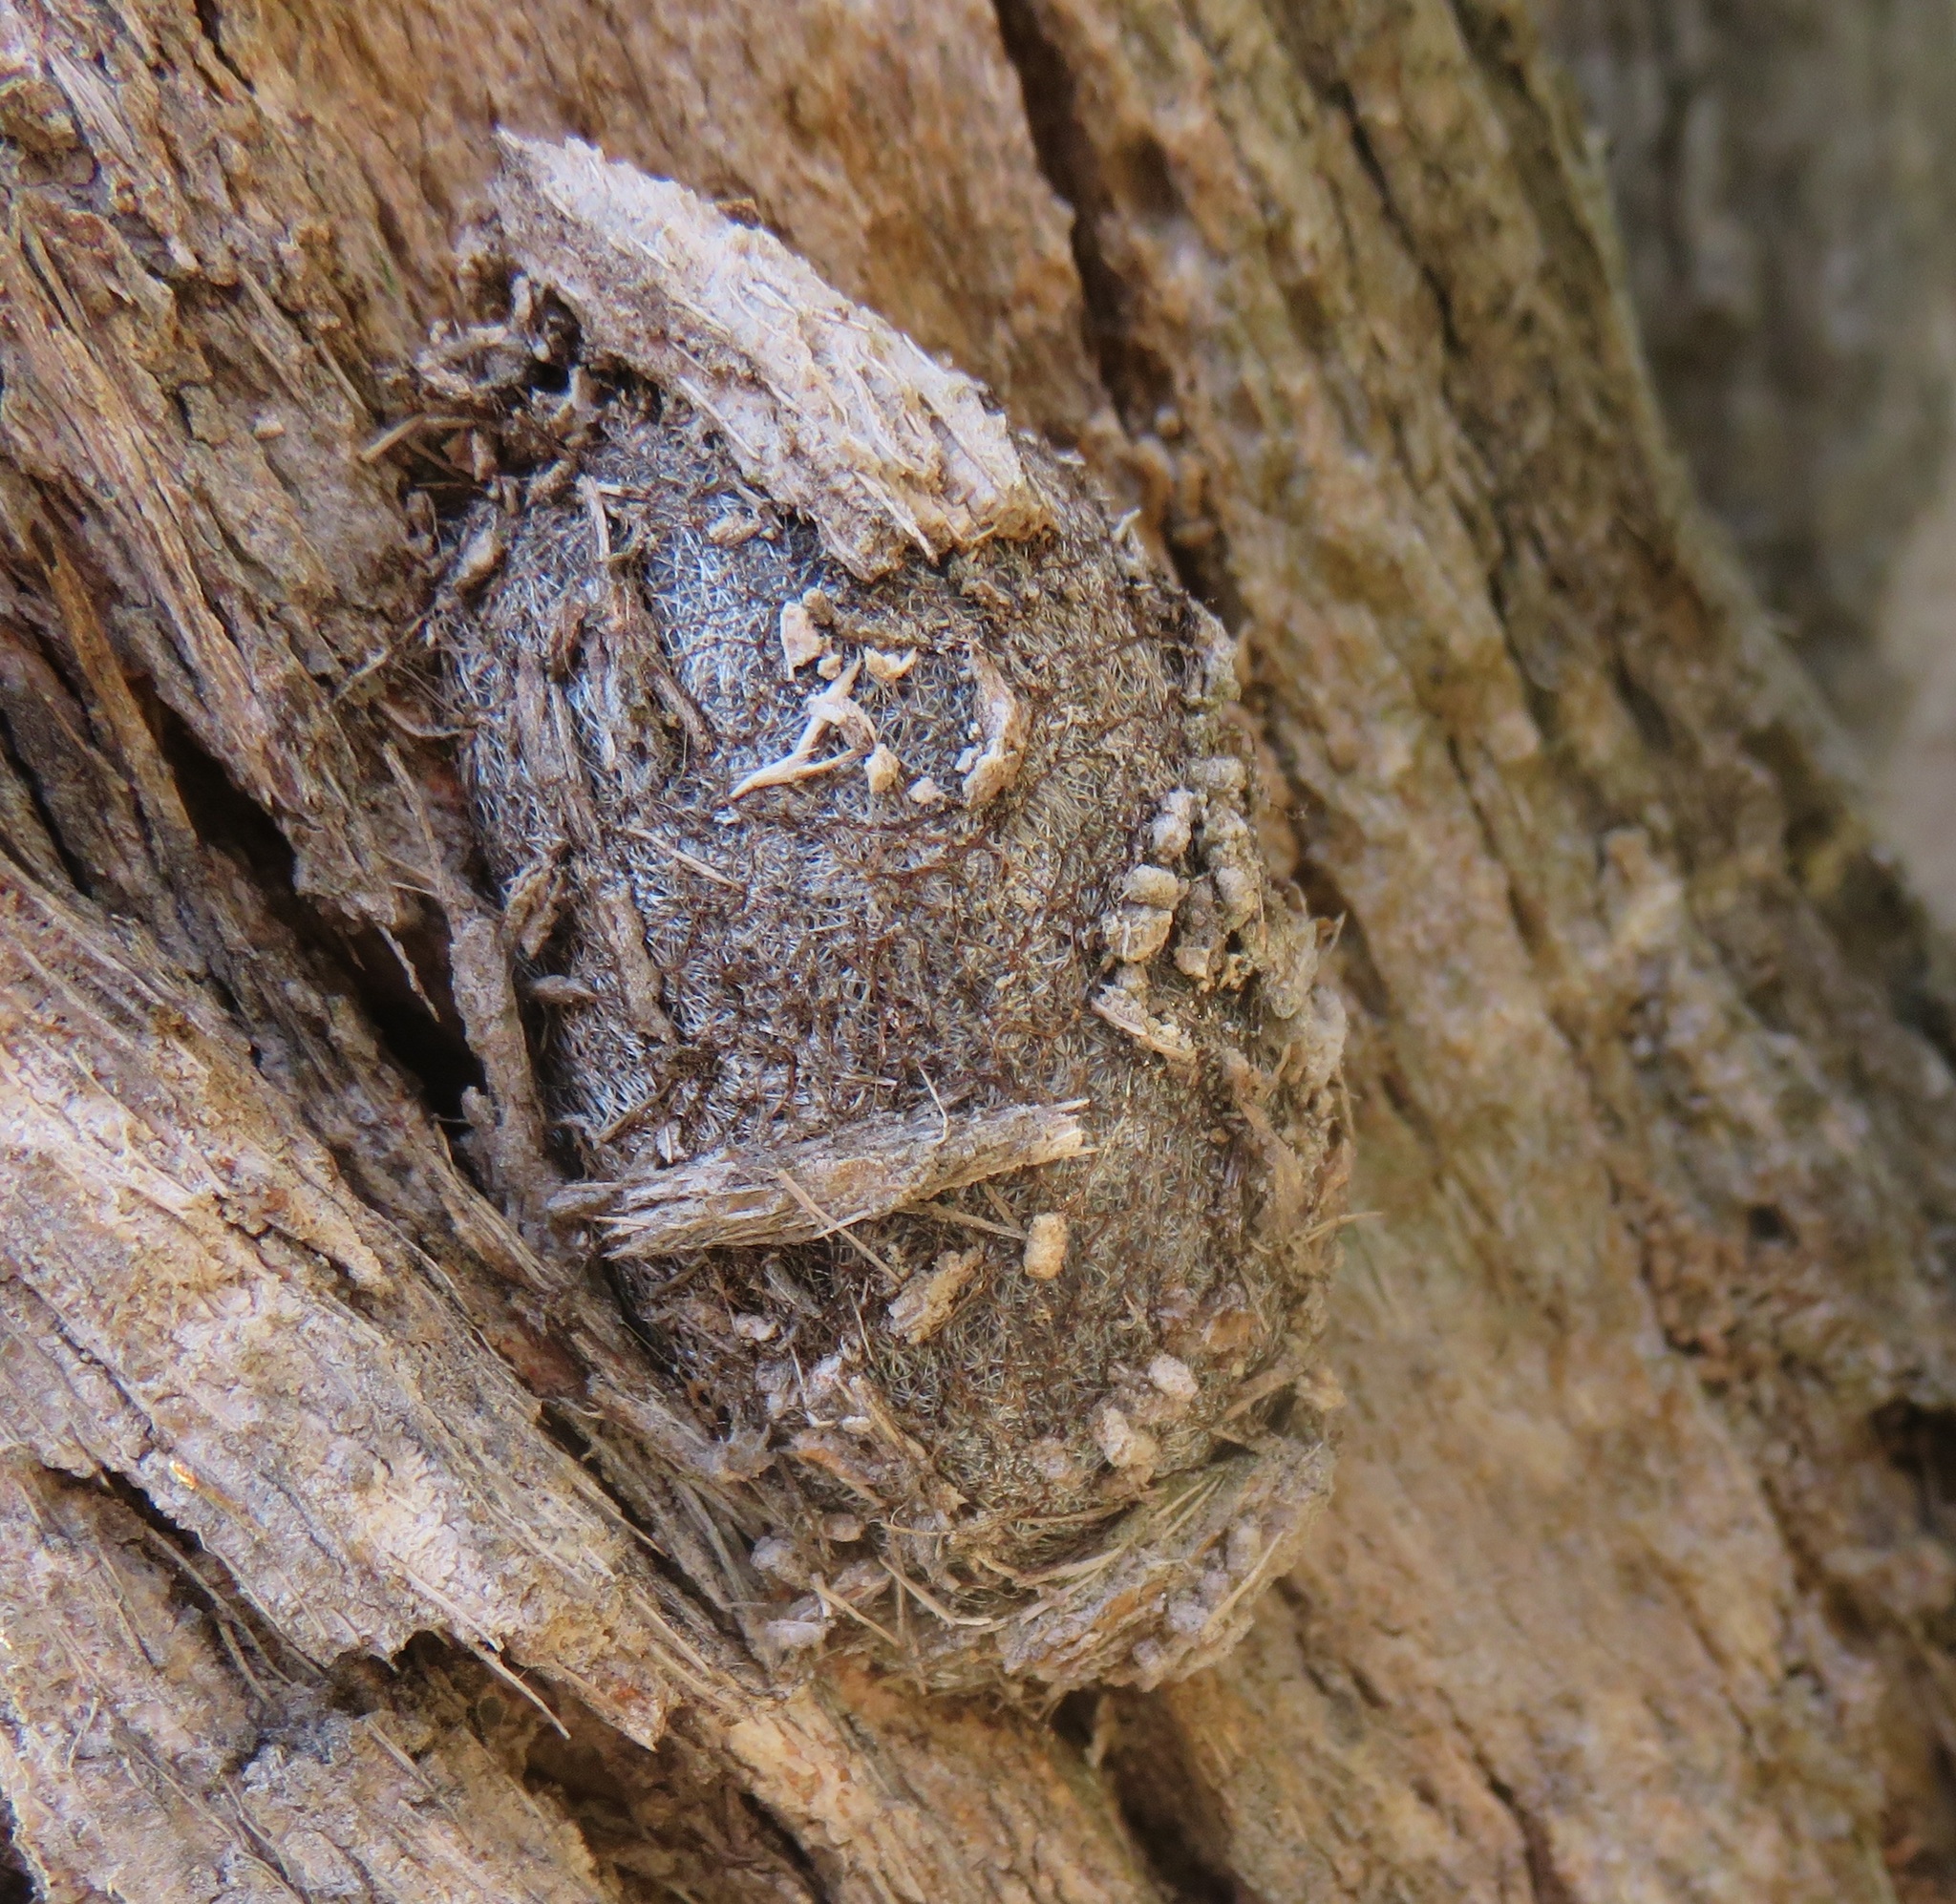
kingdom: Animalia
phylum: Arthropoda
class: Insecta
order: Lepidoptera
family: Saturniidae
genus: Opodiphthera
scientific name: Opodiphthera
